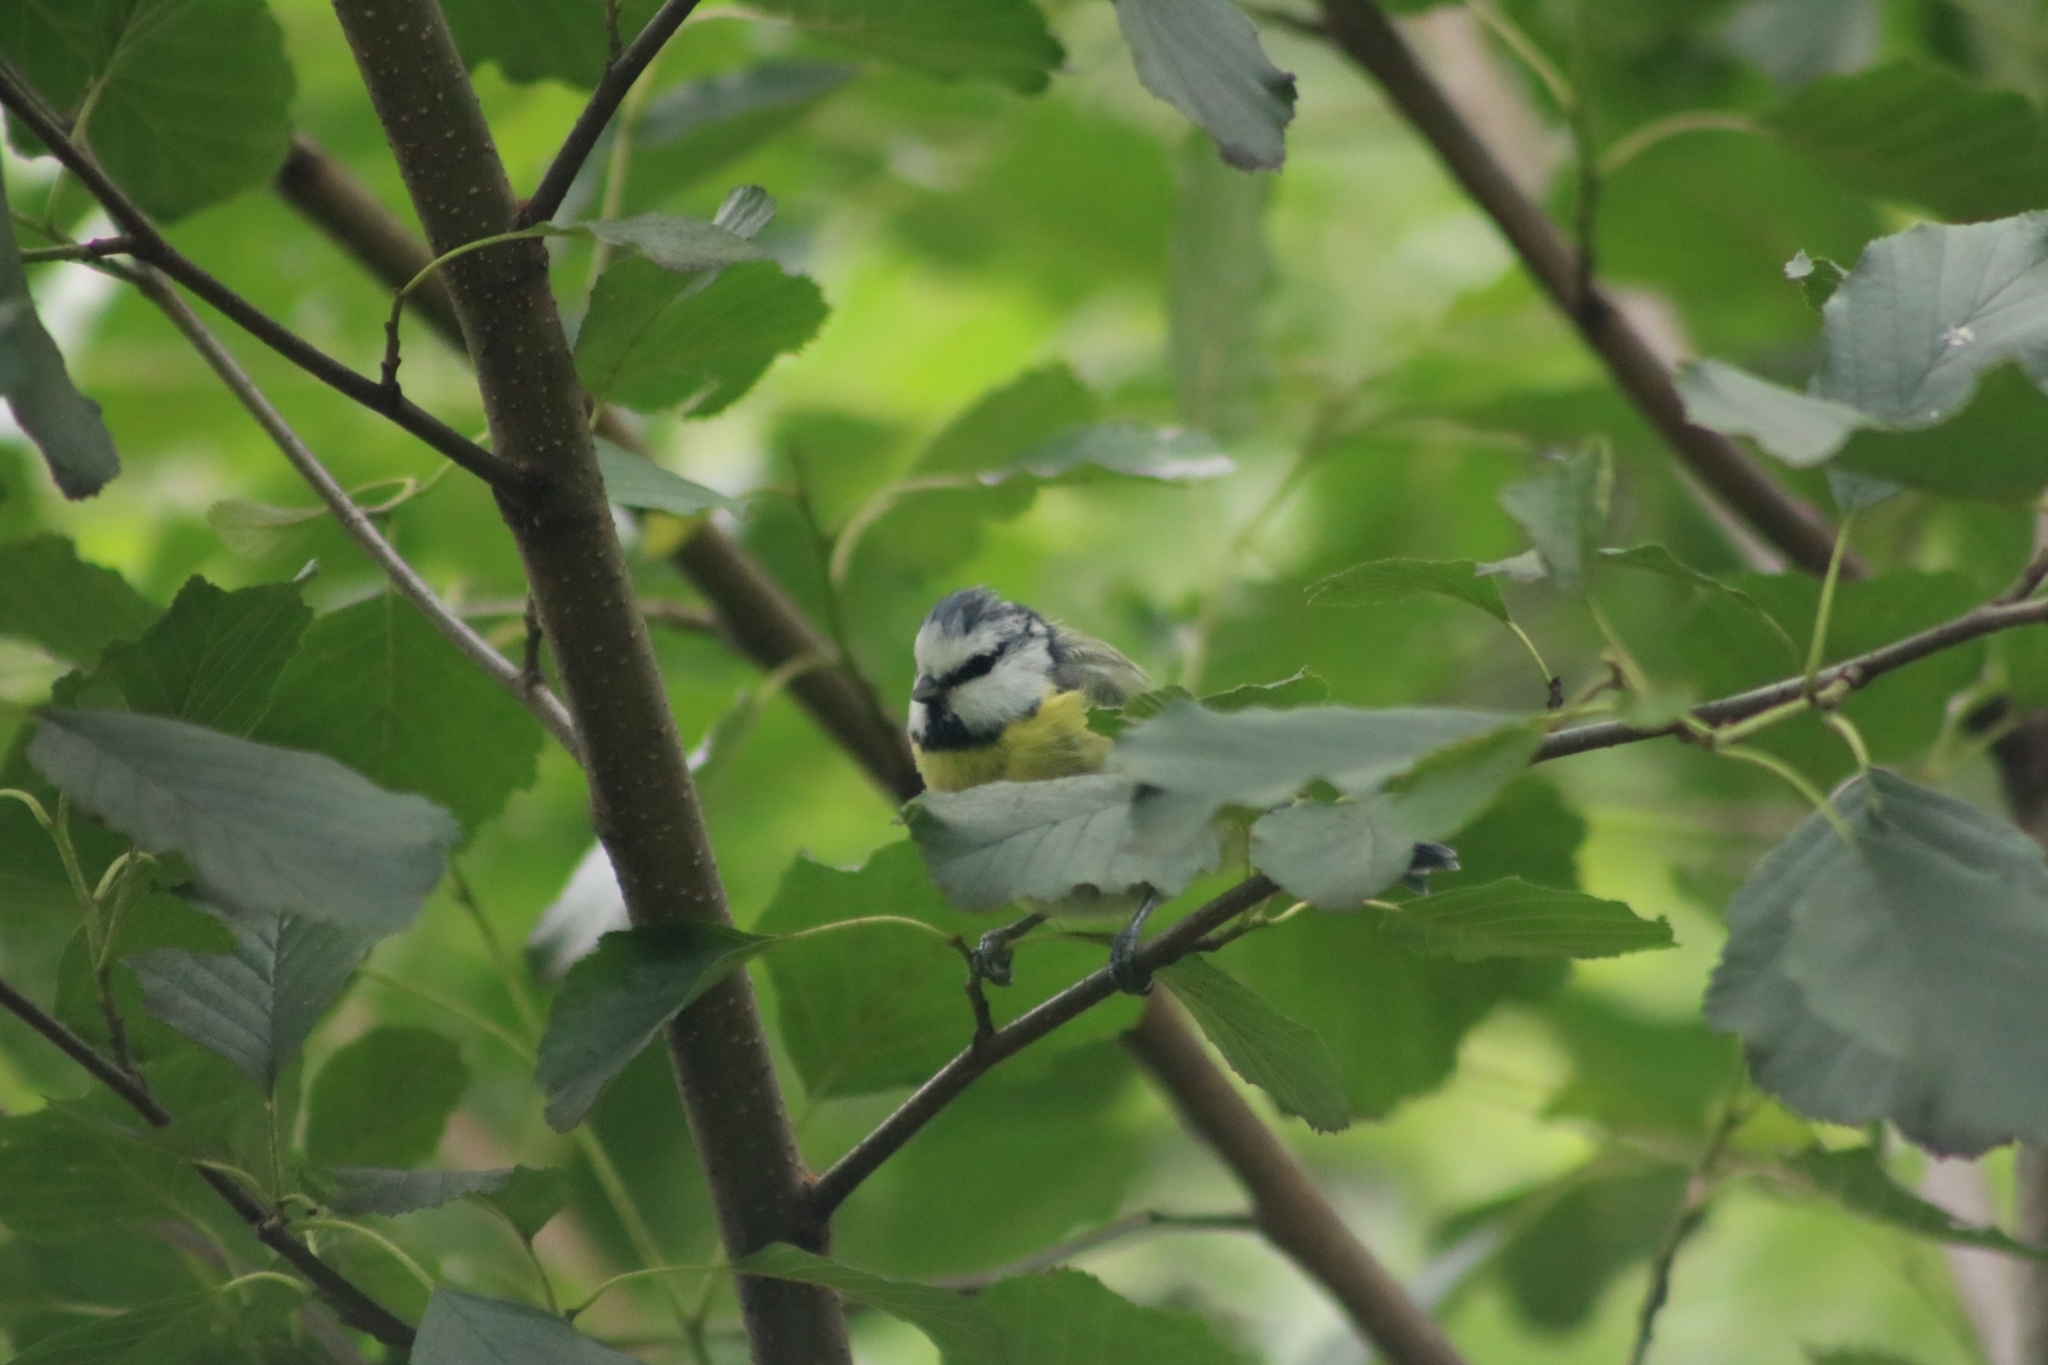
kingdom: Animalia
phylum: Chordata
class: Aves
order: Passeriformes
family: Paridae
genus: Cyanistes
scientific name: Cyanistes caeruleus
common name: Eurasian blue tit
